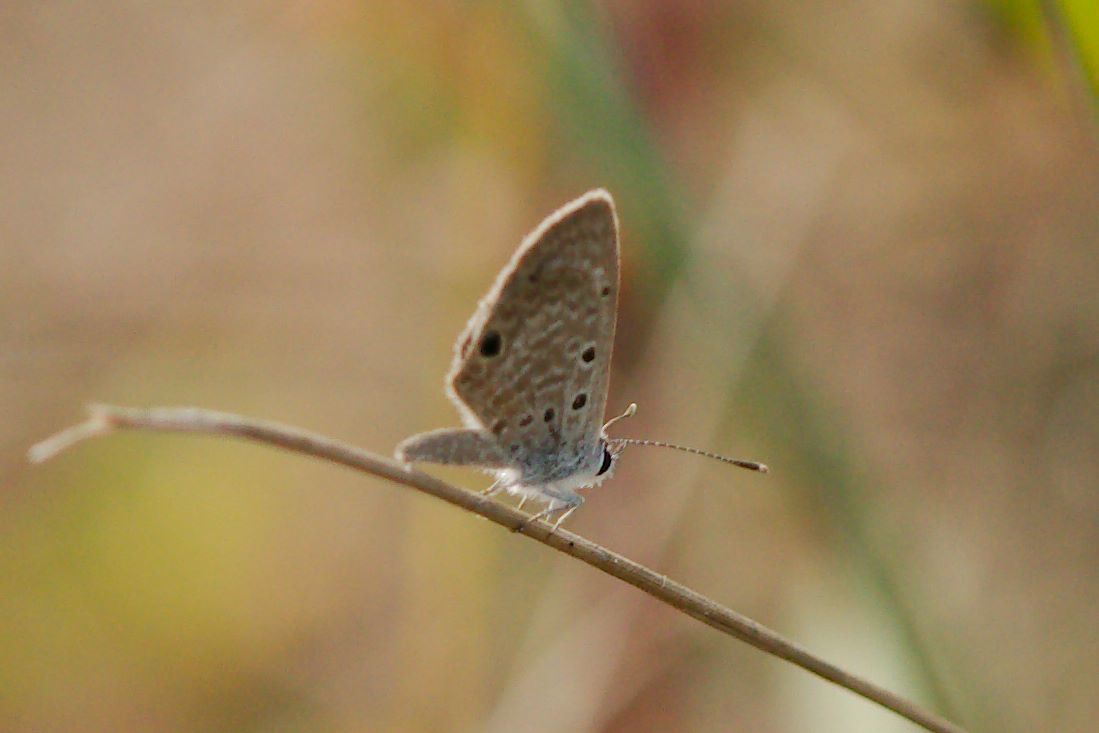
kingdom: Animalia
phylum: Arthropoda
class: Insecta
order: Lepidoptera
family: Lycaenidae
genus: Hemiargus
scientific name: Hemiargus ceraunus
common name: Ceraunus blue
